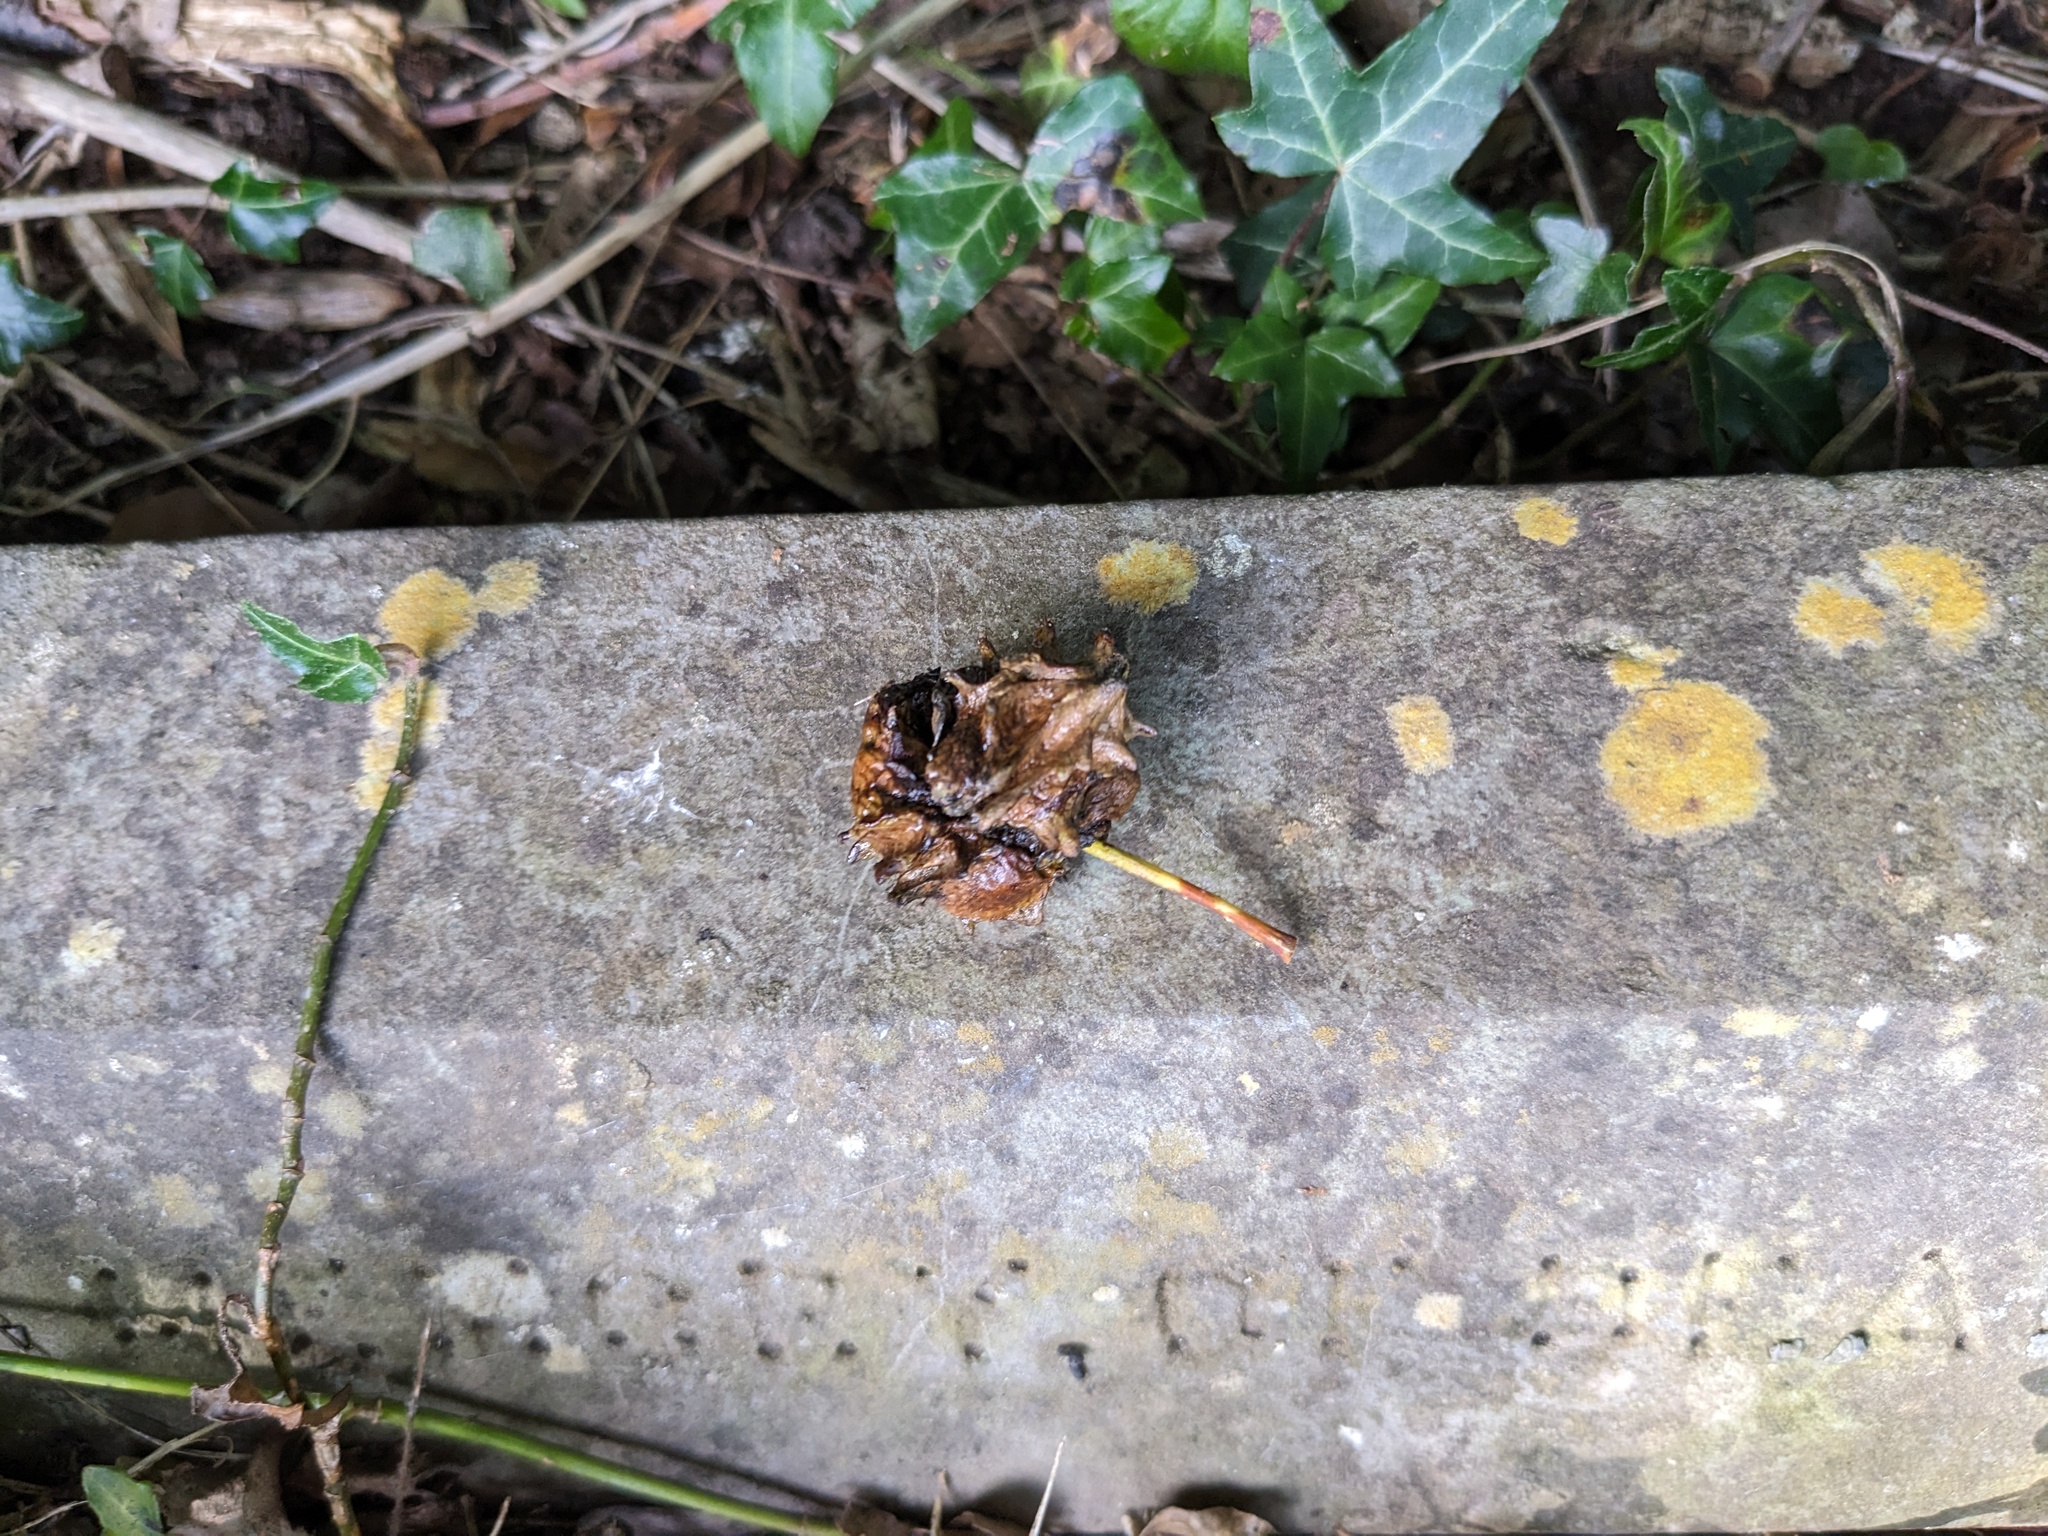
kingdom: Animalia
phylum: Arthropoda
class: Insecta
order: Hymenoptera
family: Cynipidae
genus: Andricus
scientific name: Andricus quercuscalicis
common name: Knopper gall
